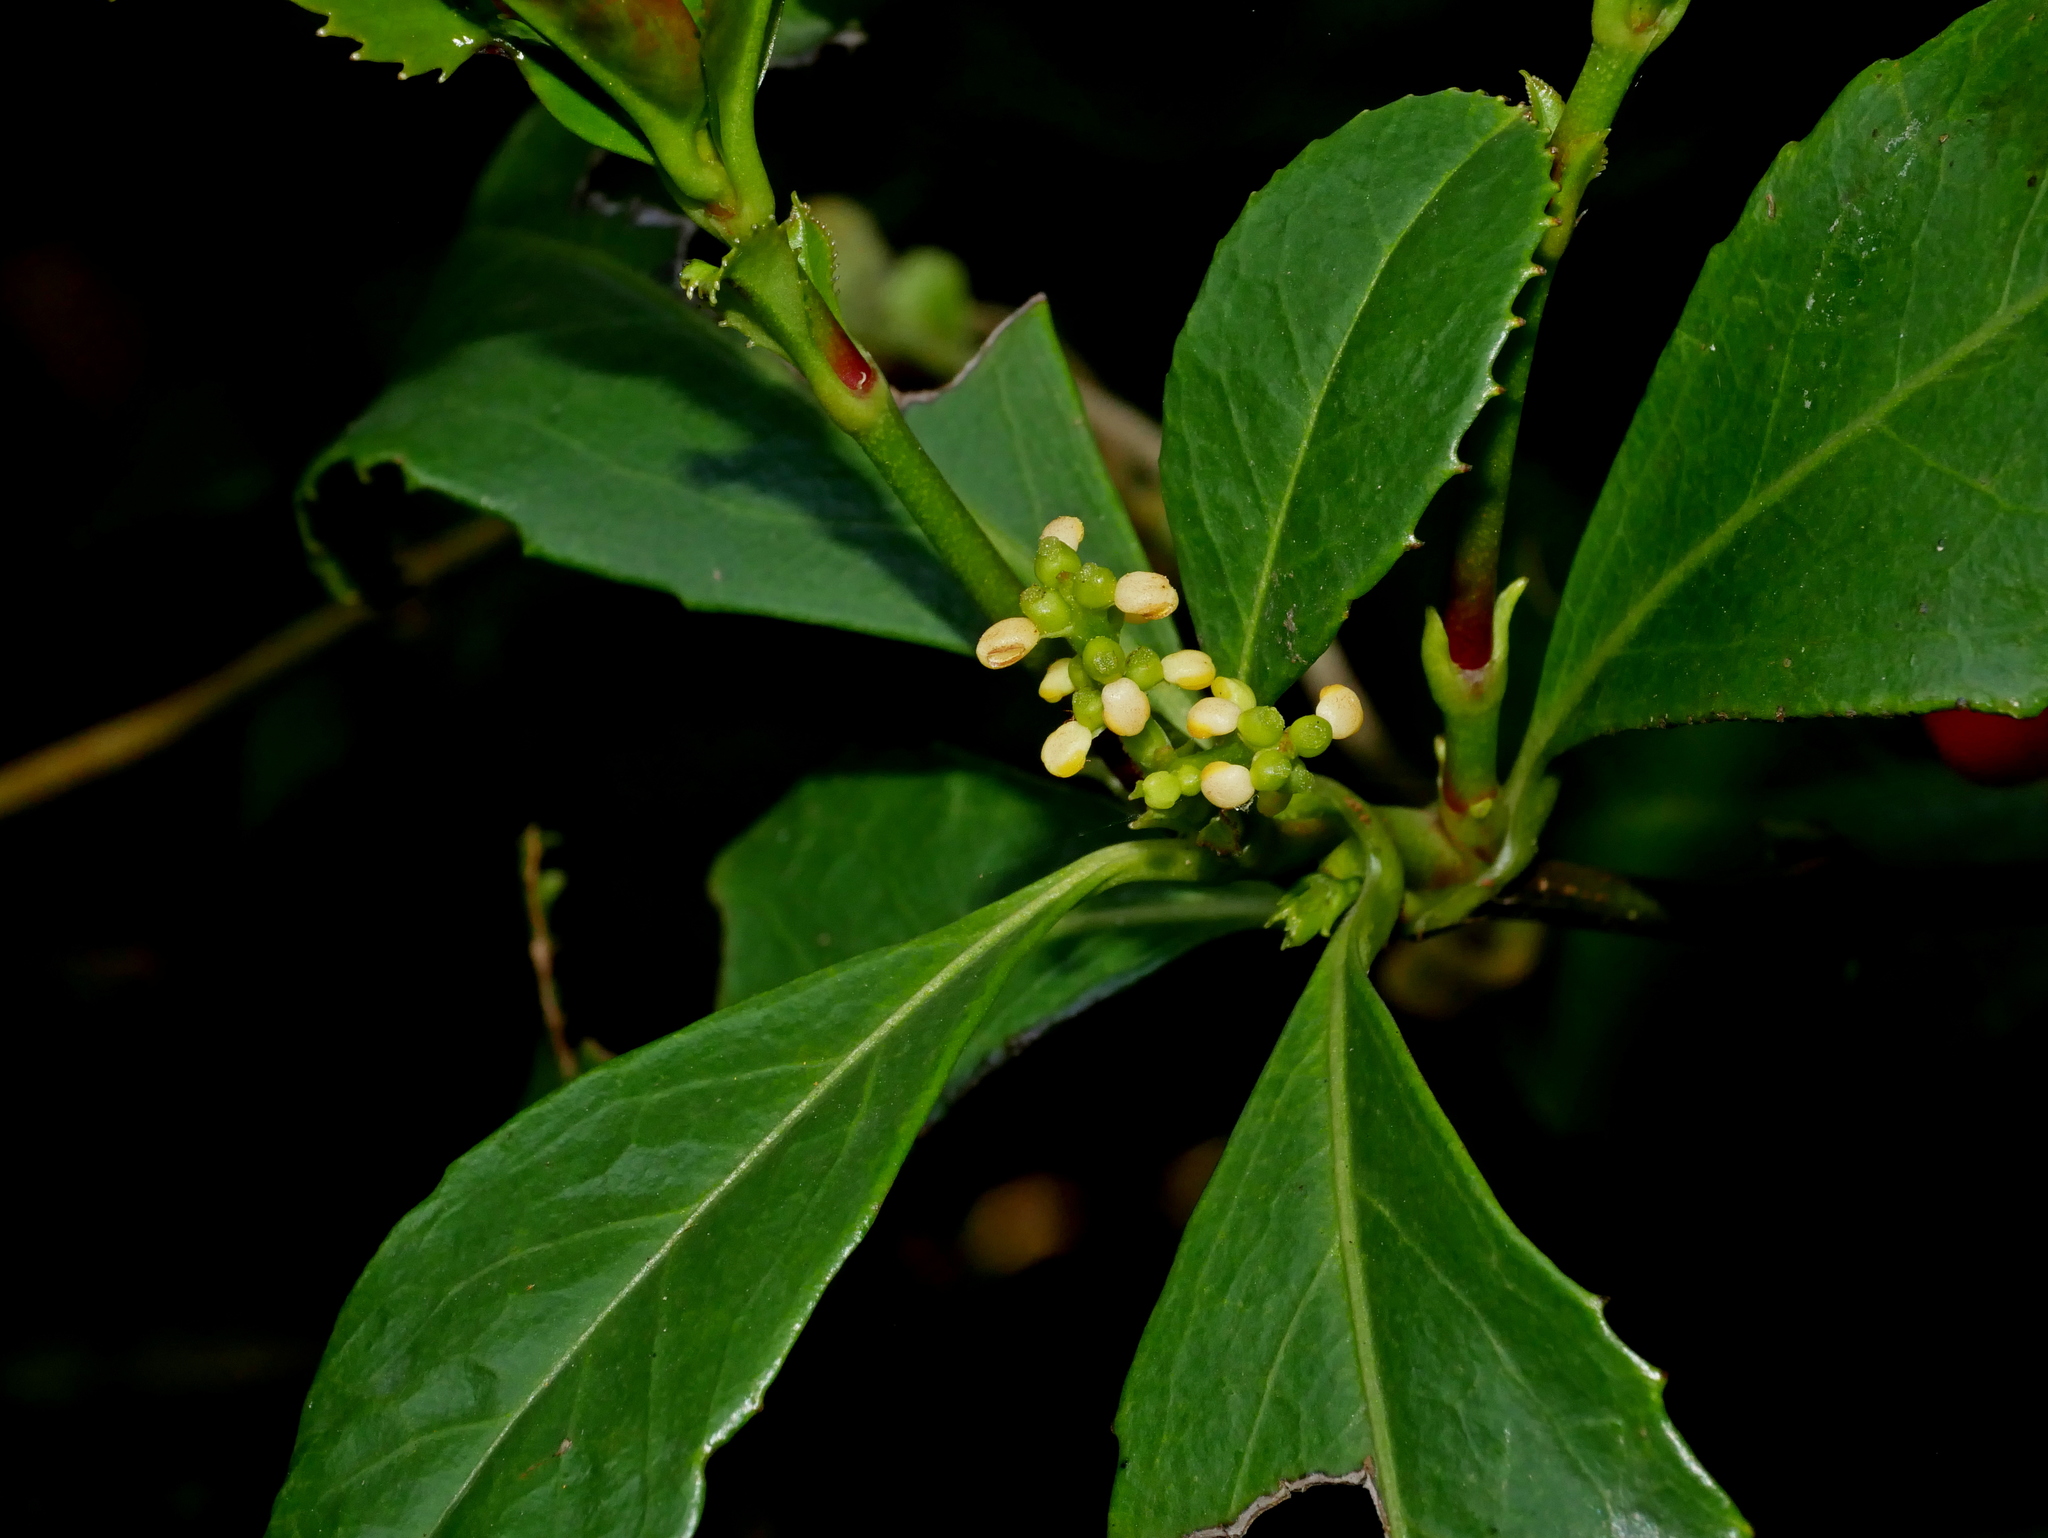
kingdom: Plantae
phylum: Tracheophyta
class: Magnoliopsida
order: Chloranthales
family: Chloranthaceae
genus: Sarcandra
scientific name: Sarcandra glabra
